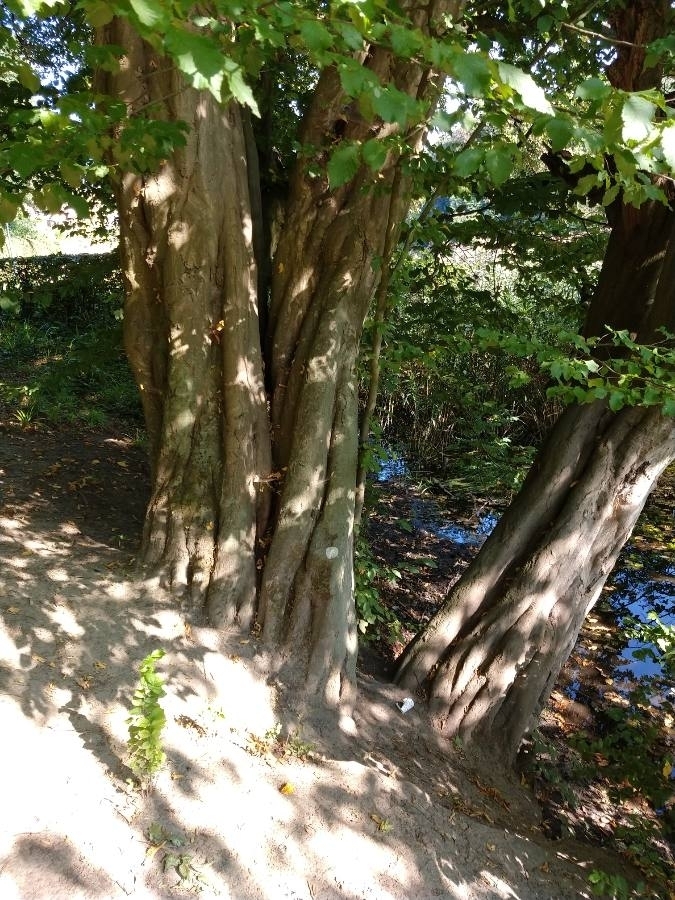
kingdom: Plantae
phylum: Tracheophyta
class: Magnoliopsida
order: Fagales
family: Betulaceae
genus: Carpinus
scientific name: Carpinus betulus
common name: Hornbeam
